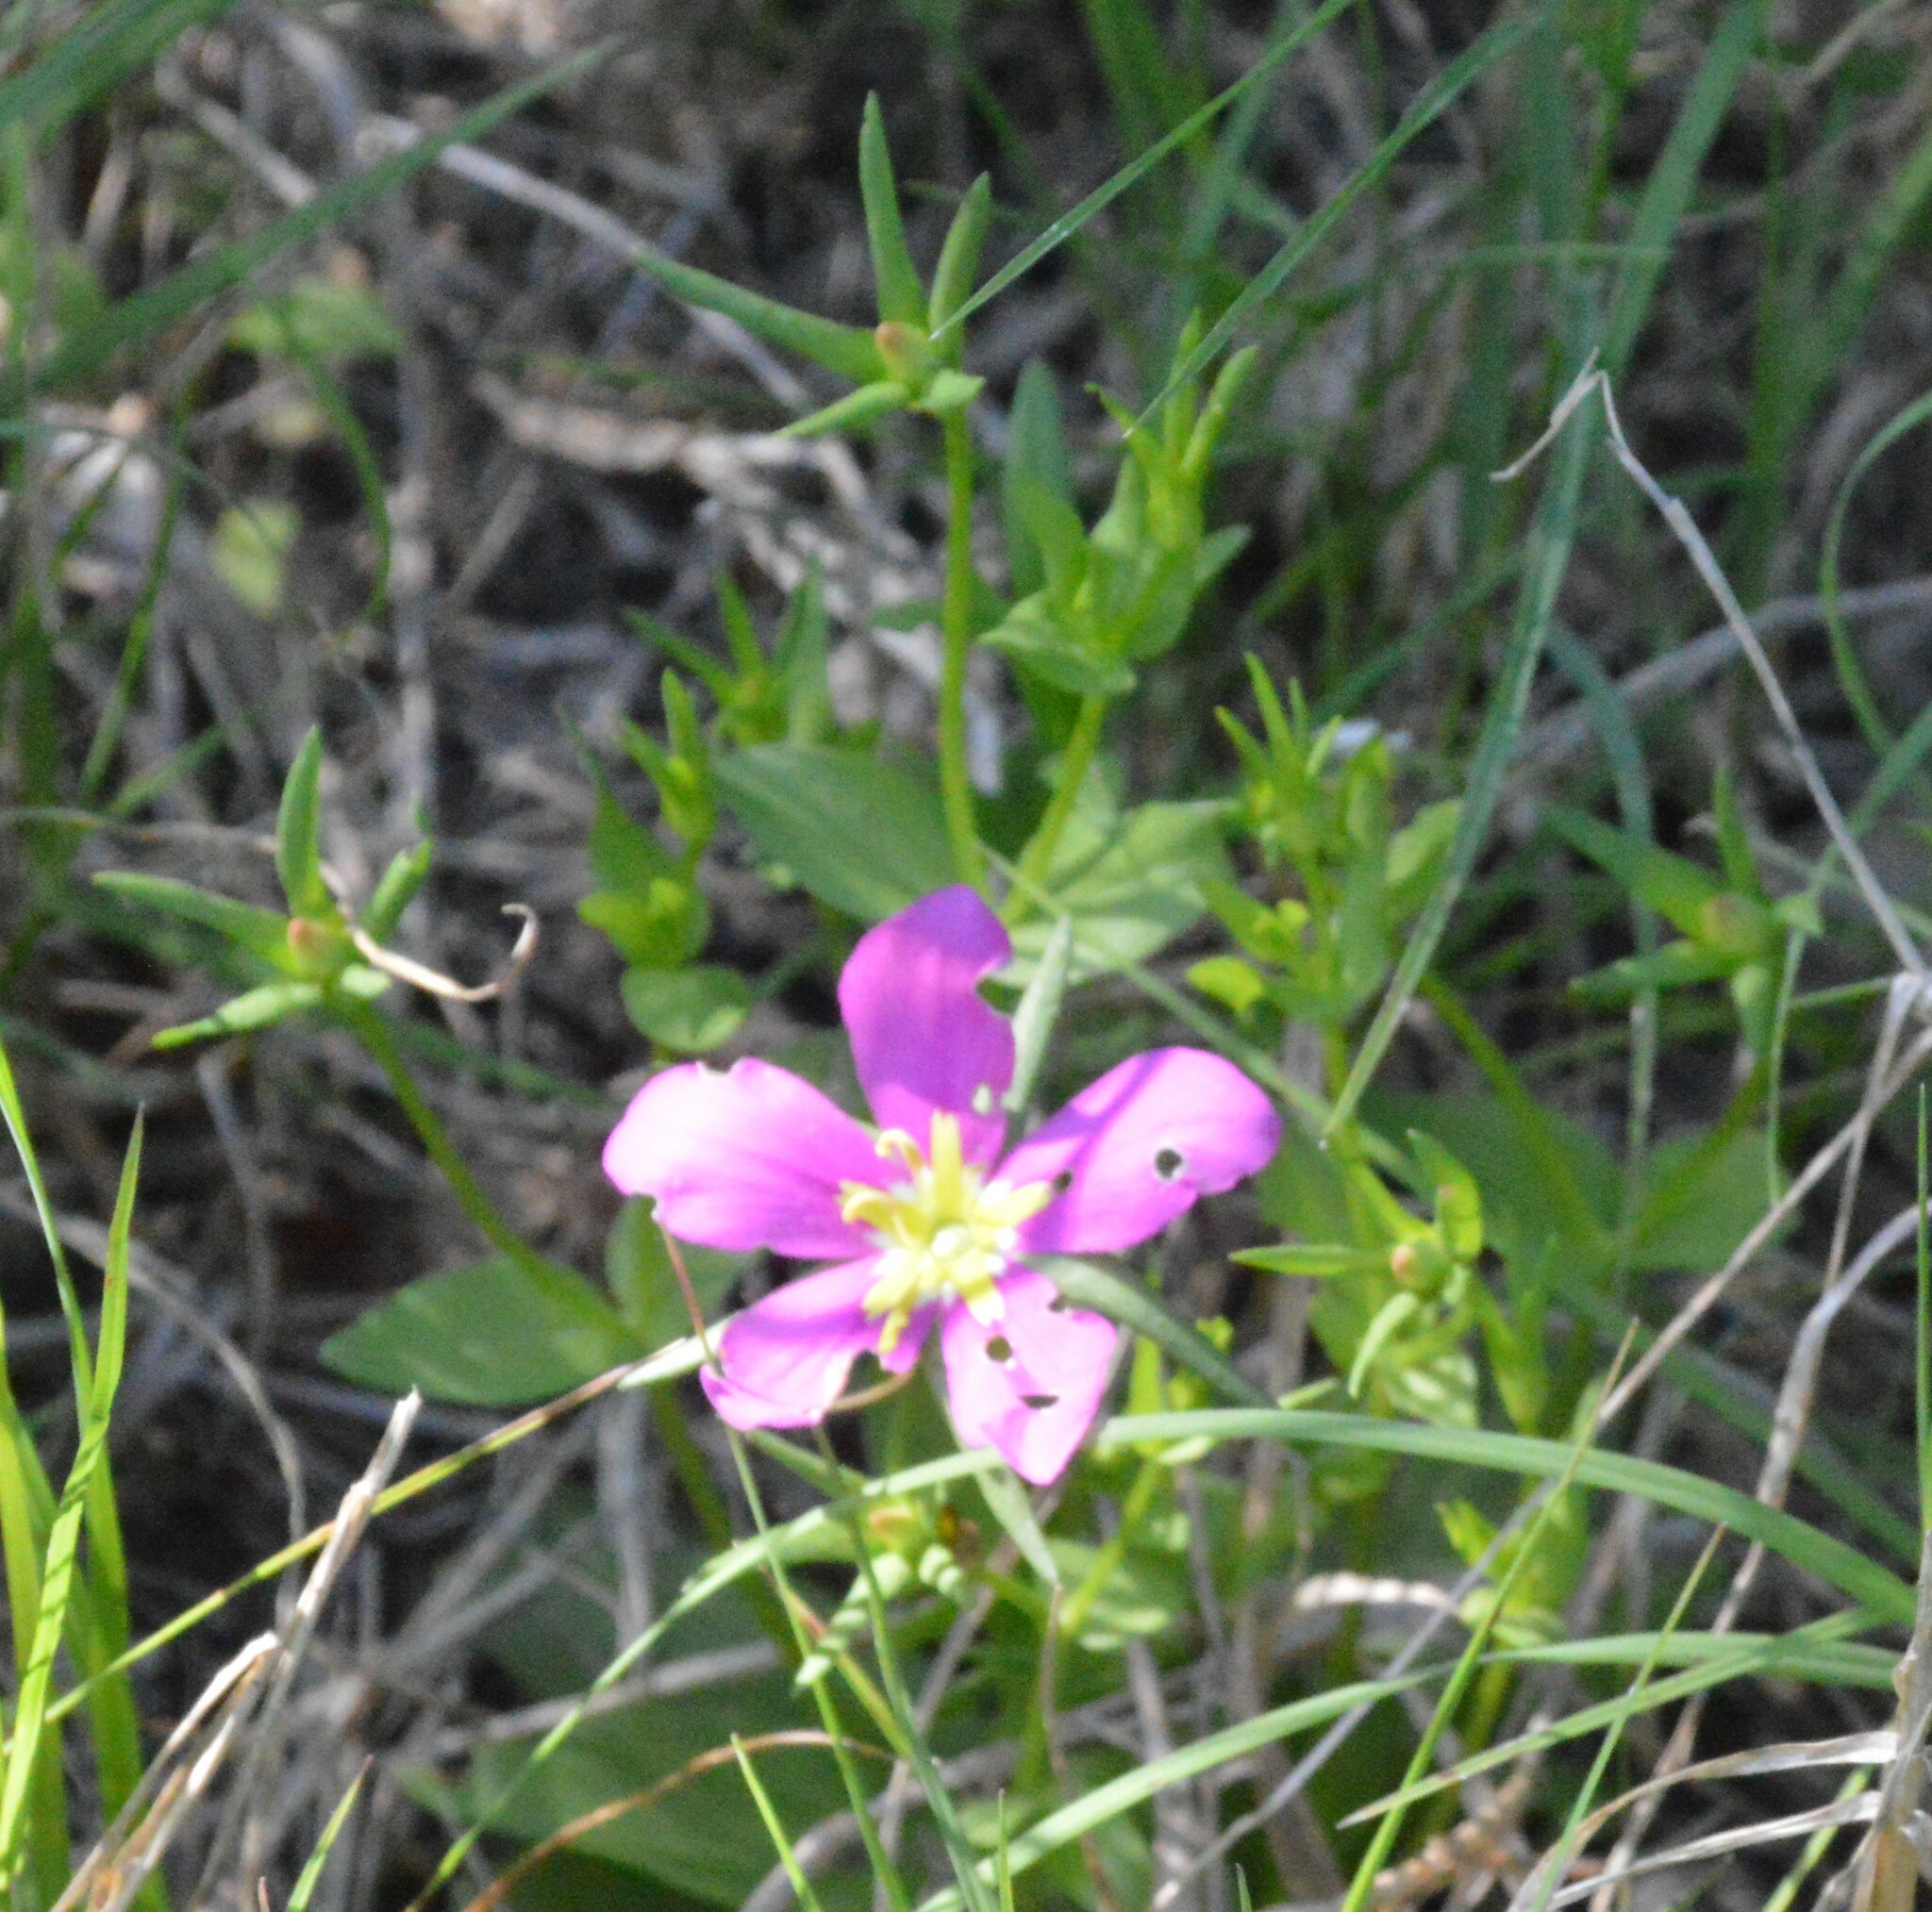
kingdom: Plantae
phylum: Tracheophyta
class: Magnoliopsida
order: Gentianales
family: Gentianaceae
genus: Sabatia
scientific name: Sabatia campestris
